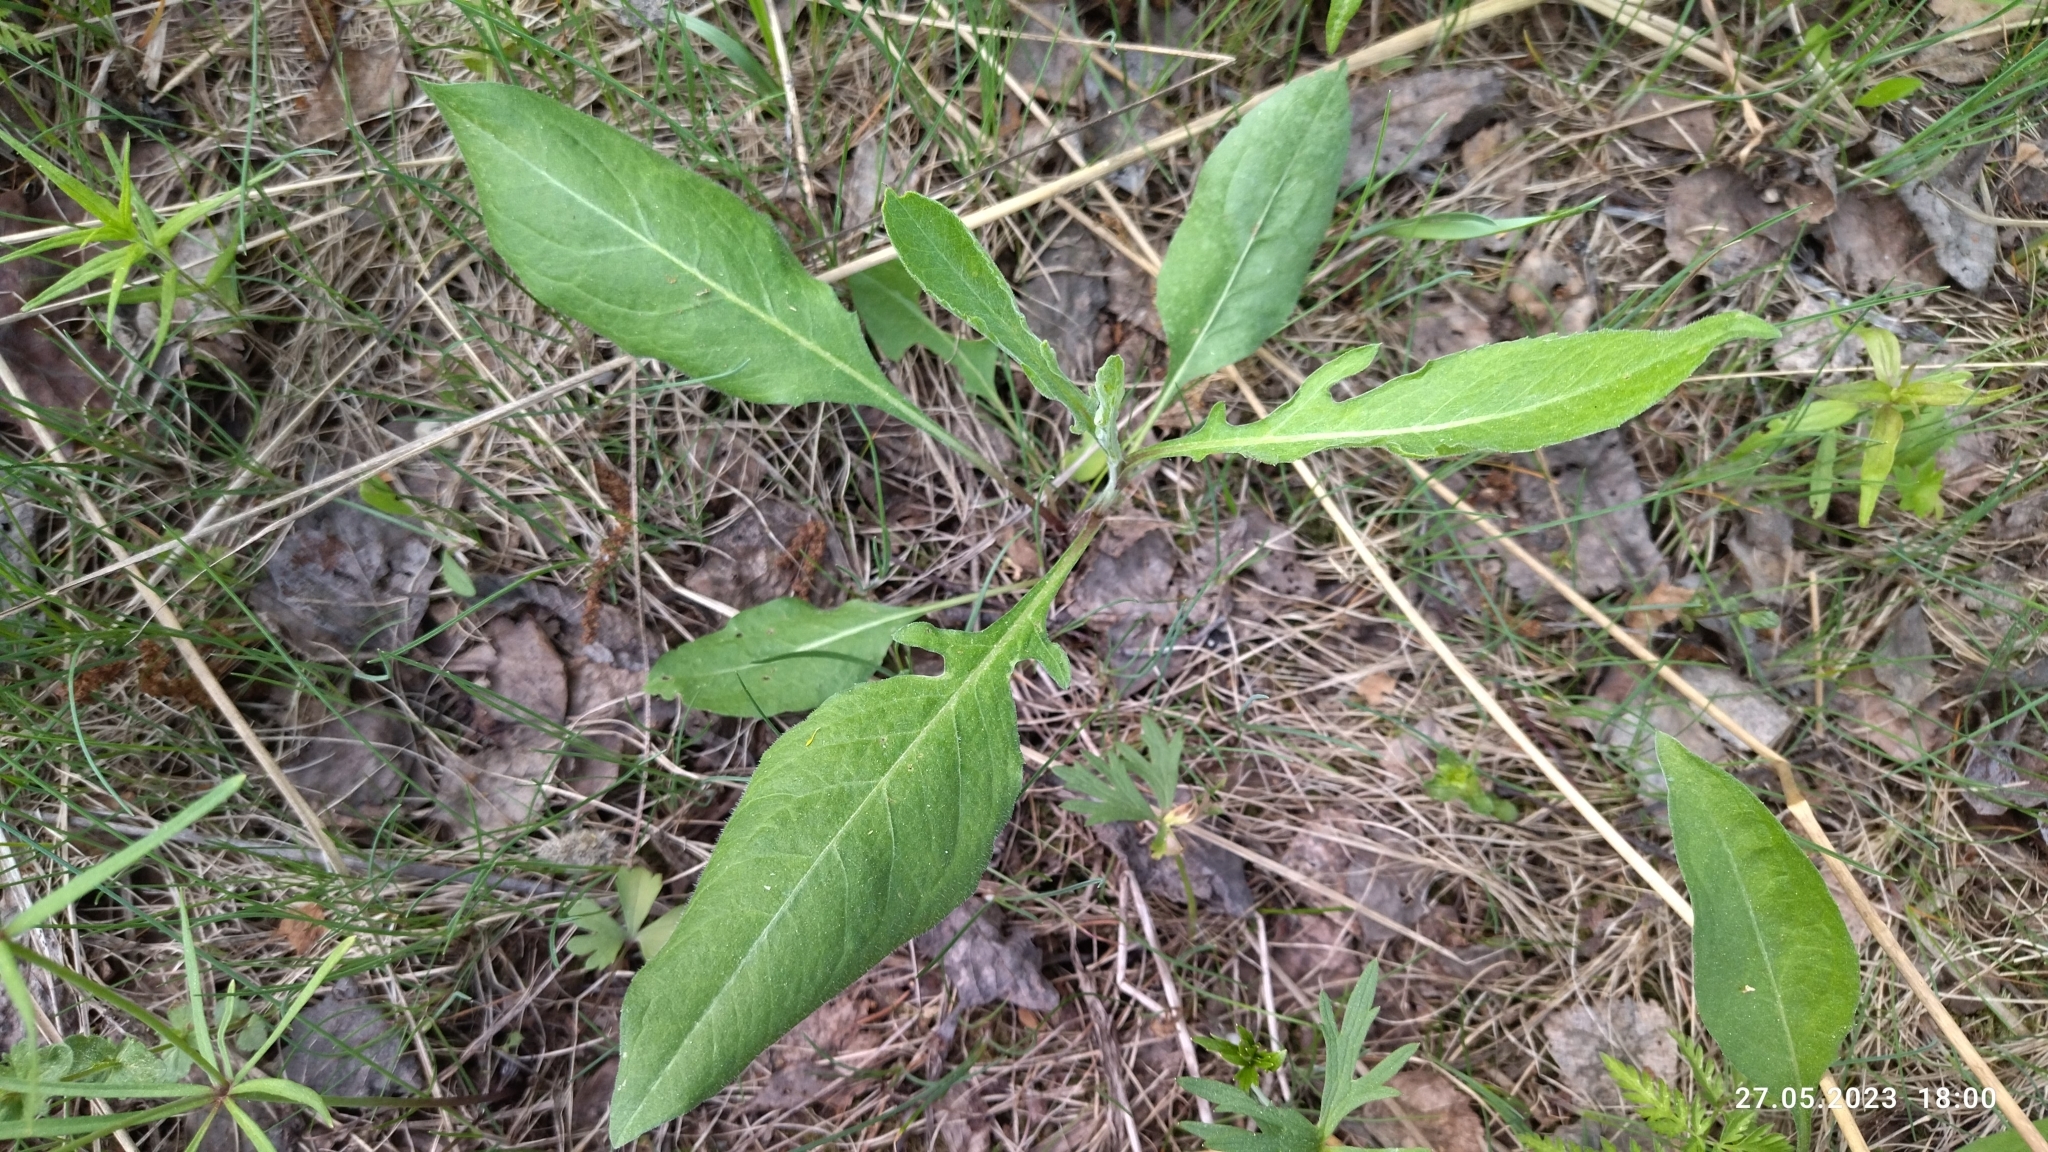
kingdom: Plantae
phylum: Tracheophyta
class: Magnoliopsida
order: Dipsacales
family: Caprifoliaceae
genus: Knautia
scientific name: Knautia arvensis
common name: Field scabiosa
